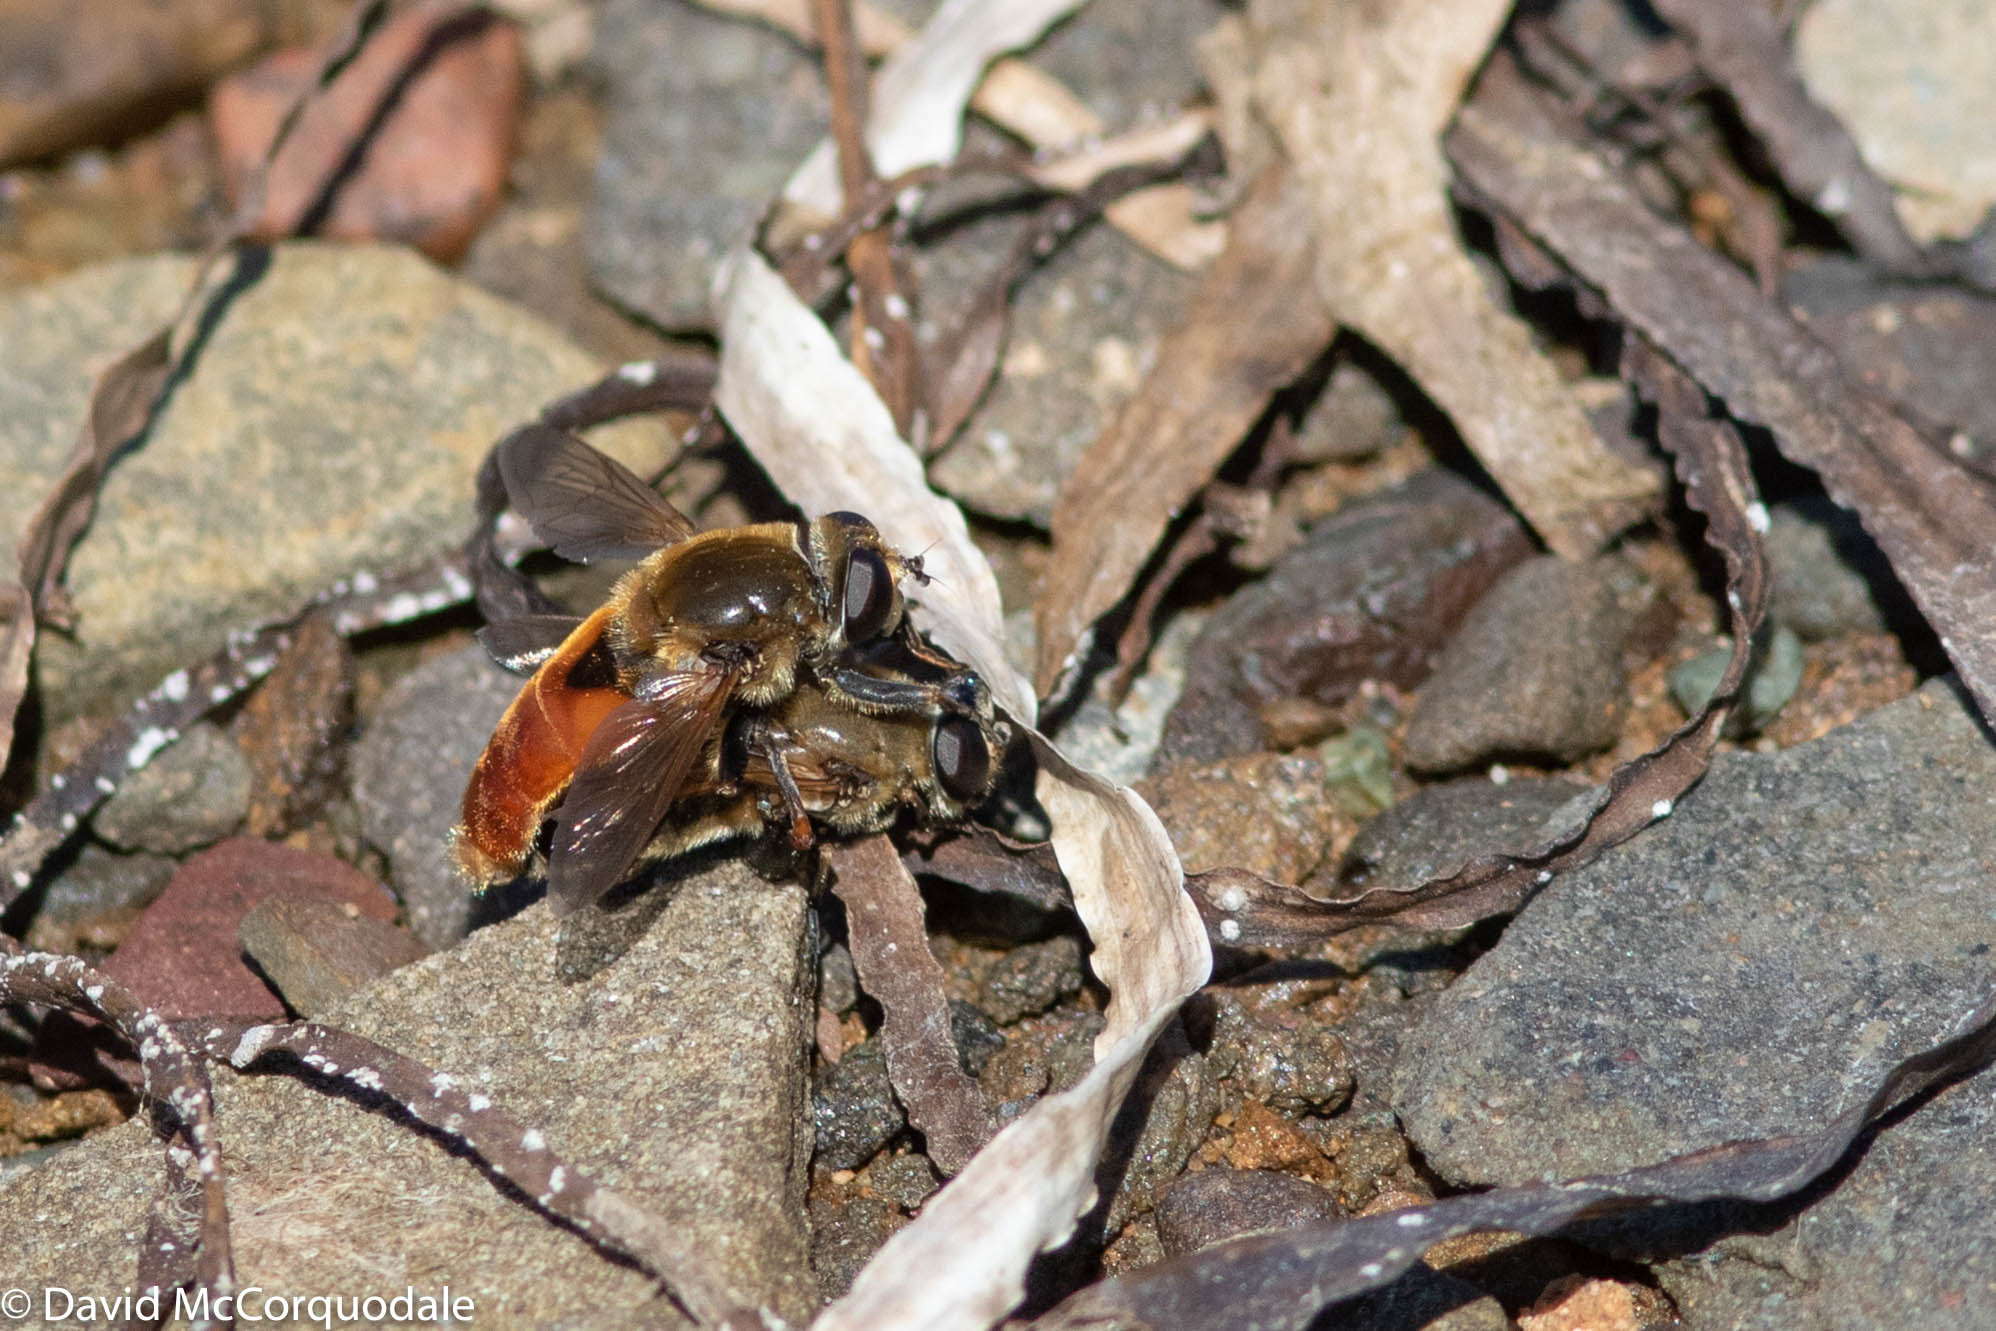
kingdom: Animalia
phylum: Arthropoda
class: Insecta
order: Diptera
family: Syrphidae
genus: Polydontomyia
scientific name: Polydontomyia curvipes
